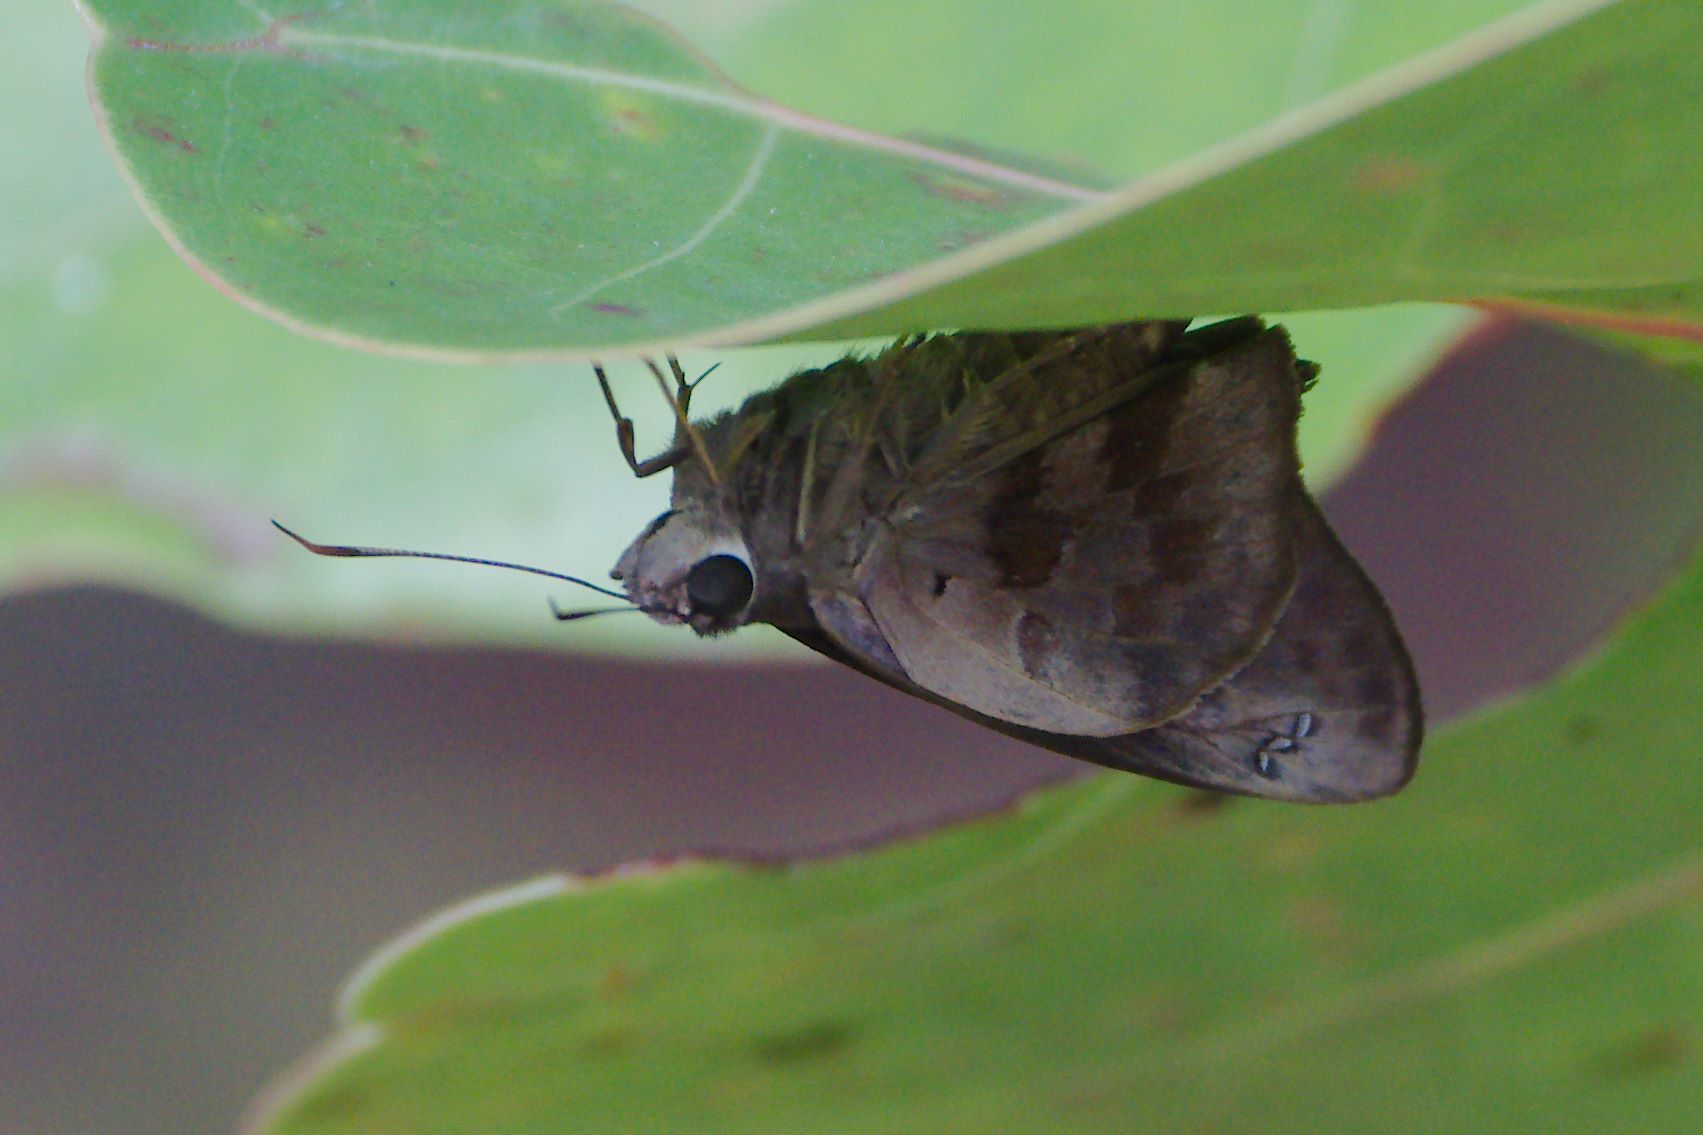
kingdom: Animalia
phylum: Arthropoda
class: Insecta
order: Lepidoptera
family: Hesperiidae
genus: Polygonus
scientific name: Polygonus leo
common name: Hammoch skipper
